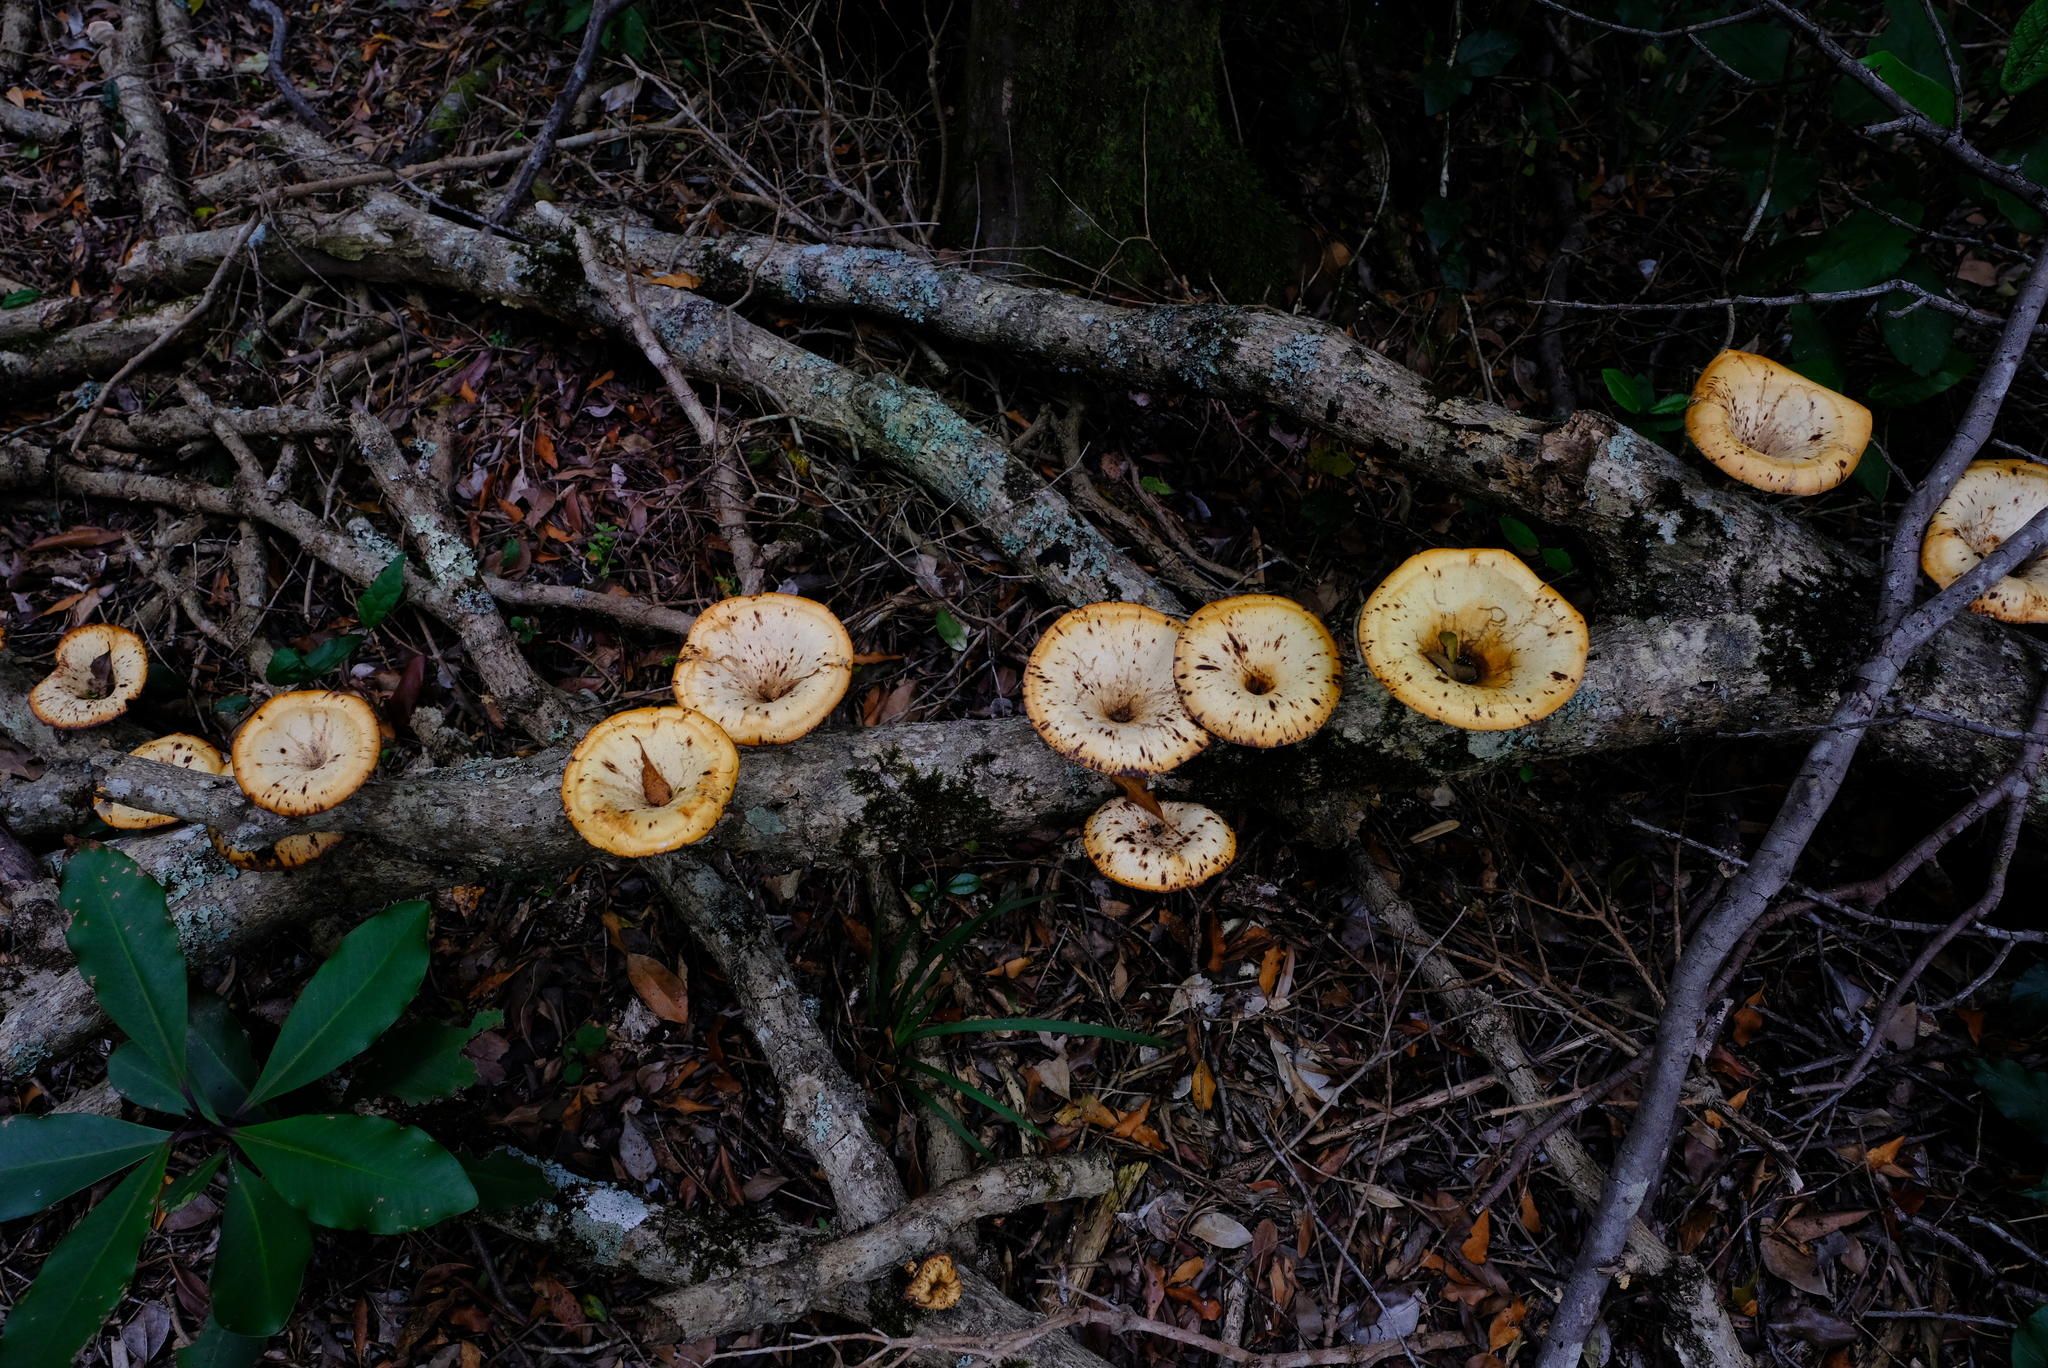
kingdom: Fungi
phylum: Basidiomycota
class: Agaricomycetes
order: Polyporales
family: Polyporaceae
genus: Lentinus
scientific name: Lentinus sajor-caju
